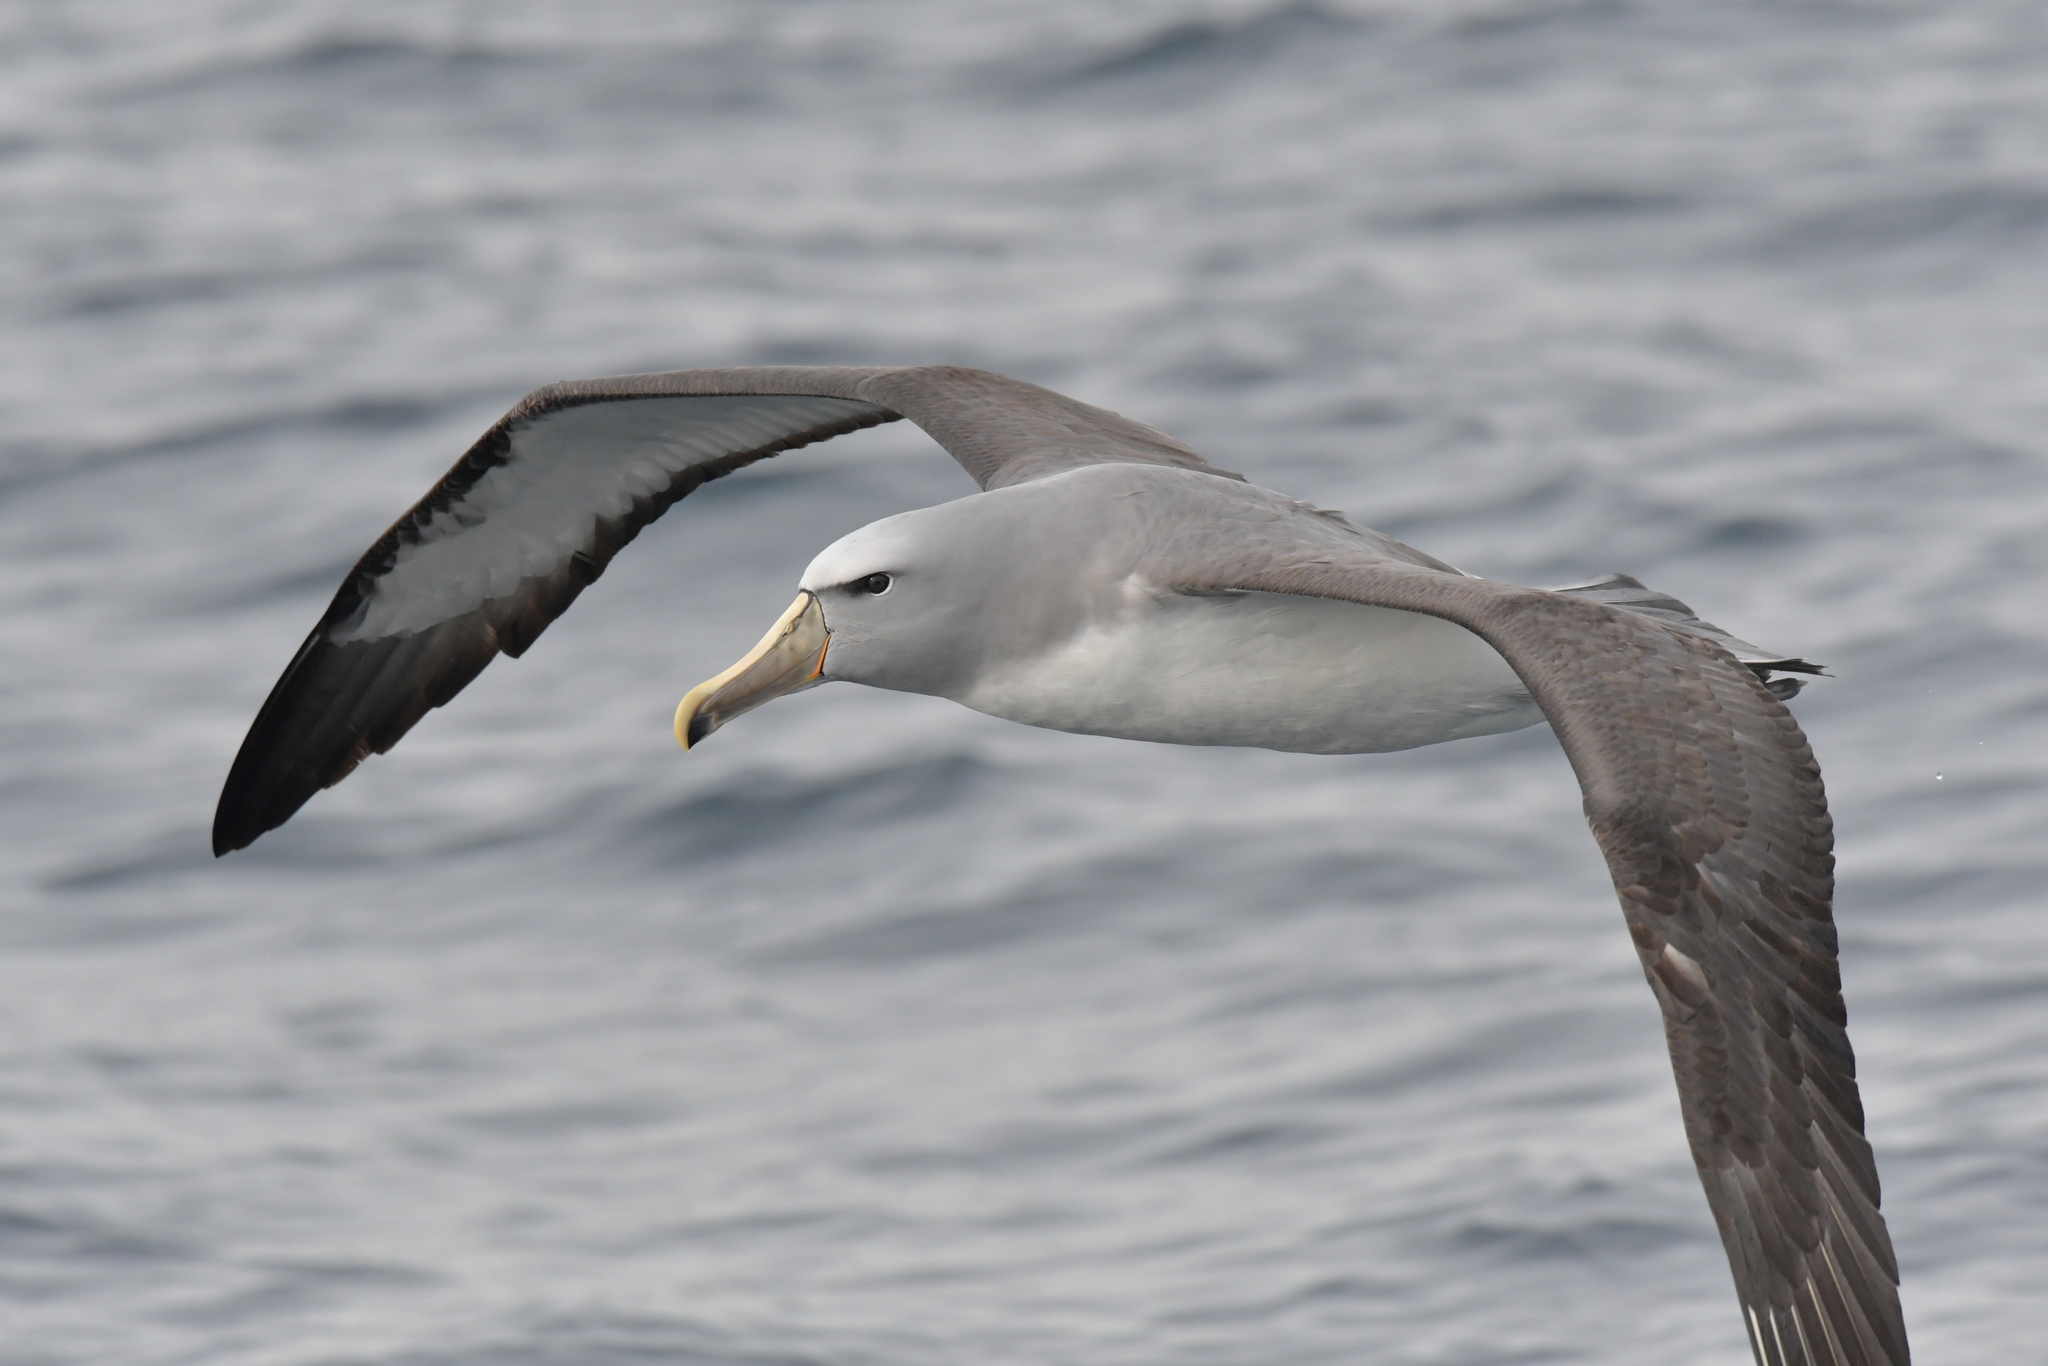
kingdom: Animalia
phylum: Chordata
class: Aves
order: Procellariiformes
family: Diomedeidae
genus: Thalassarche
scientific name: Thalassarche salvini
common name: Salvin's albatross
